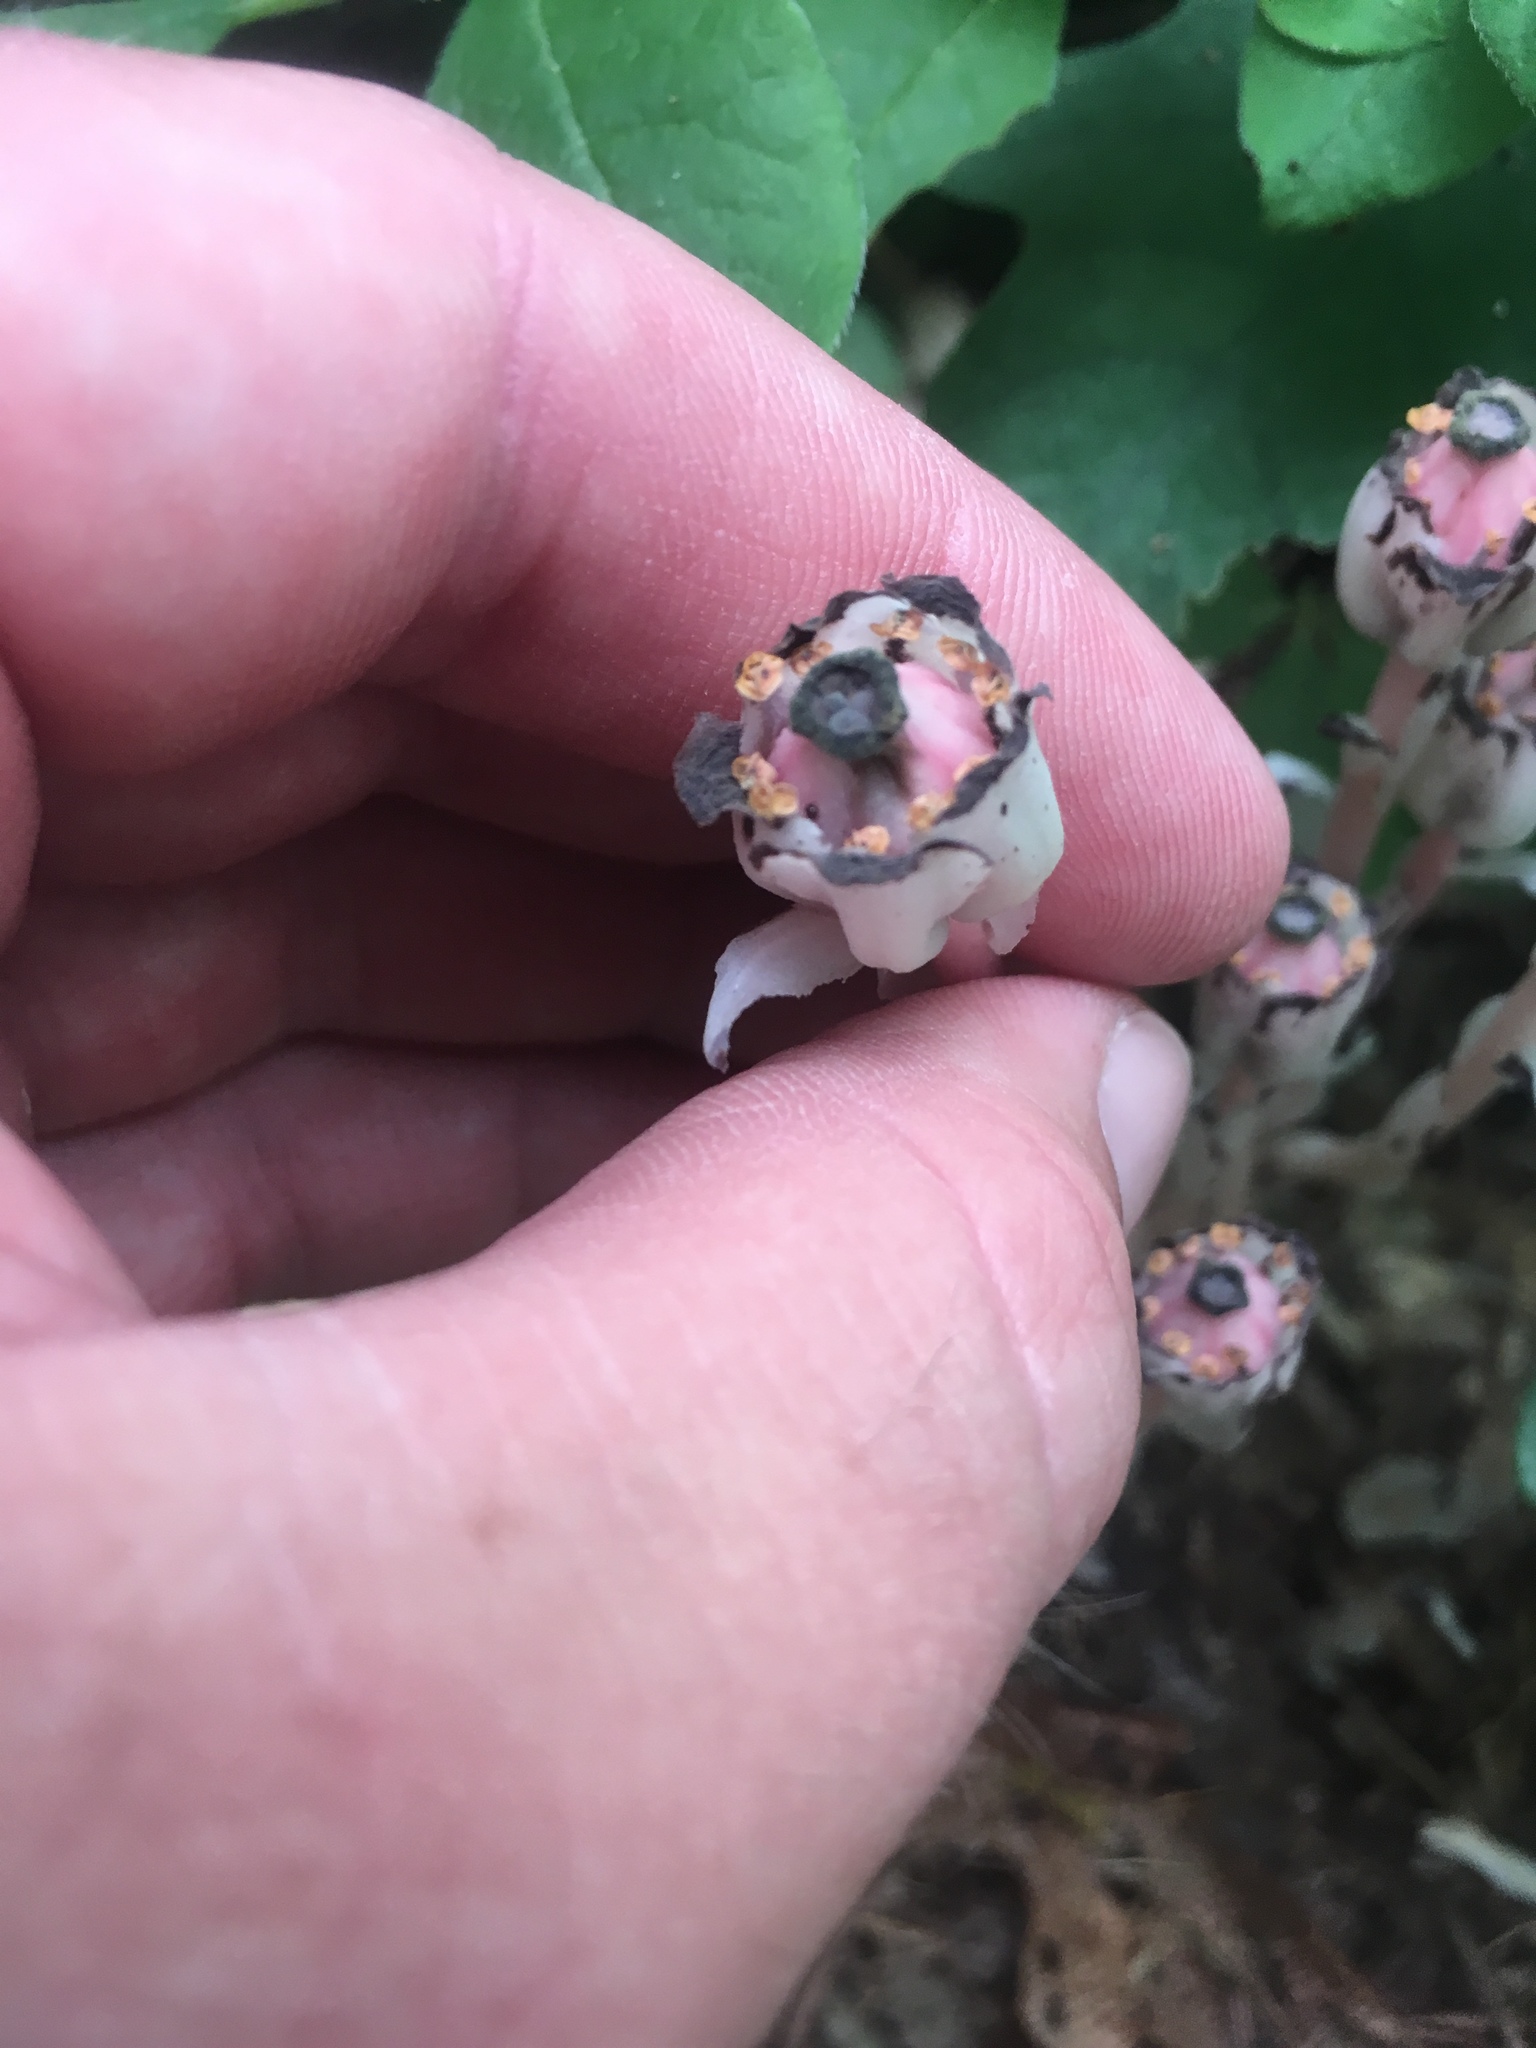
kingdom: Plantae
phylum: Tracheophyta
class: Magnoliopsida
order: Ericales
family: Ericaceae
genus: Monotropa
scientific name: Monotropa uniflora
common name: Convulsion root
